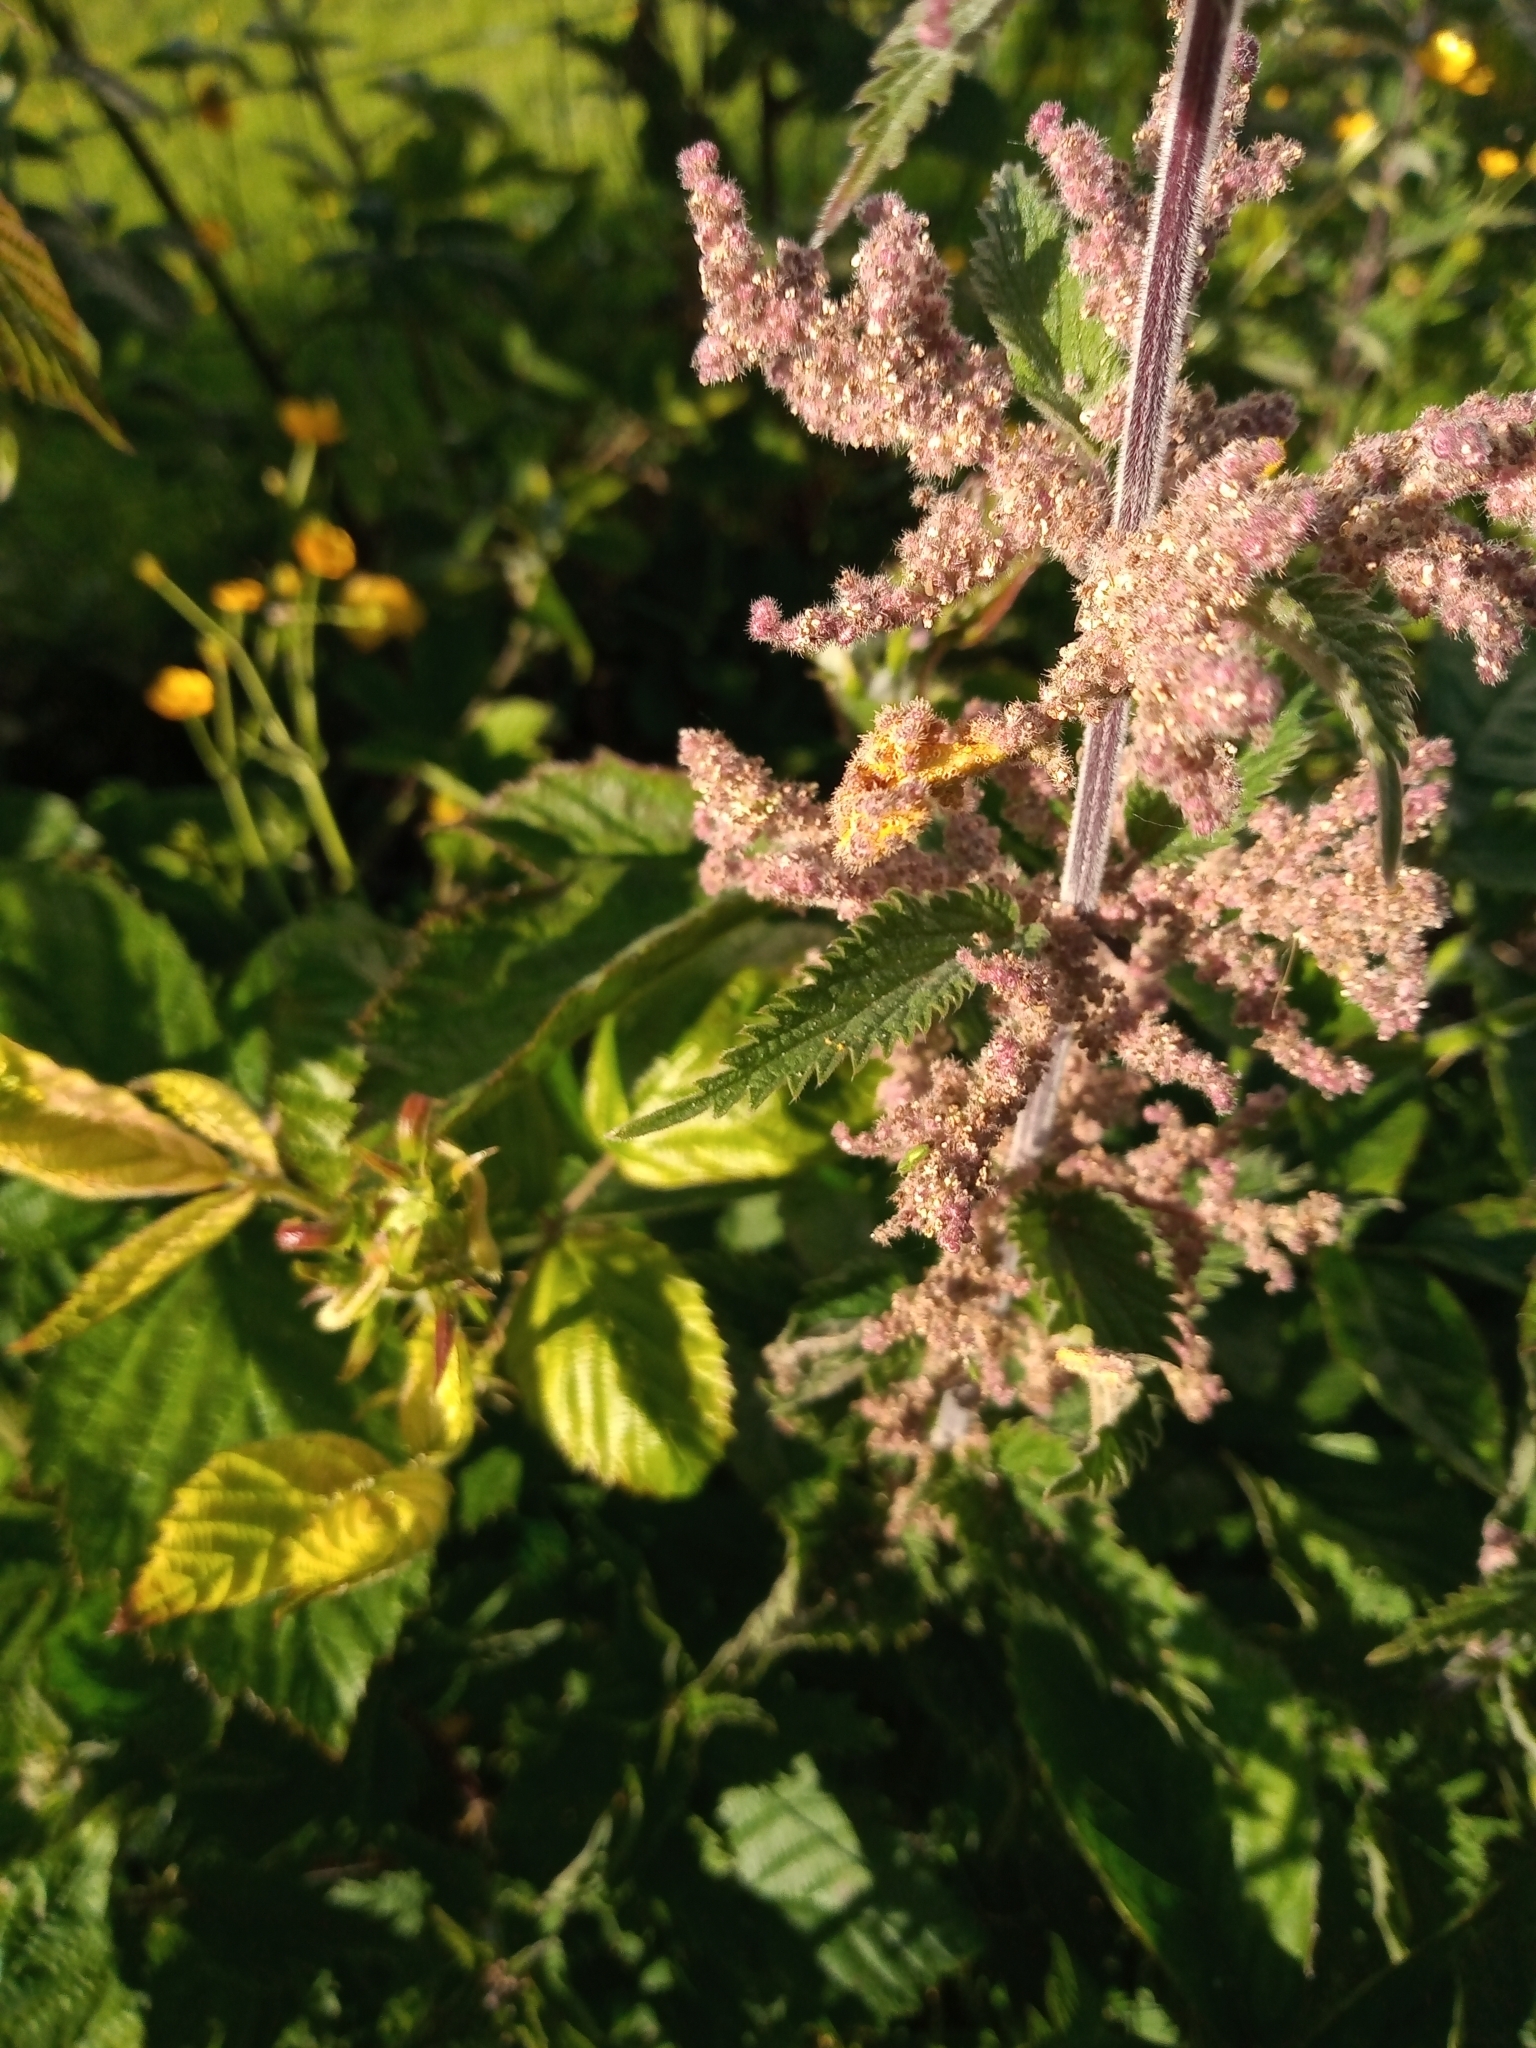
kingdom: Fungi
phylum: Basidiomycota
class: Pucciniomycetes
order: Pucciniales
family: Pucciniaceae
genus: Puccinia
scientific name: Puccinia urticata
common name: Nettle clustercup rust fungus
